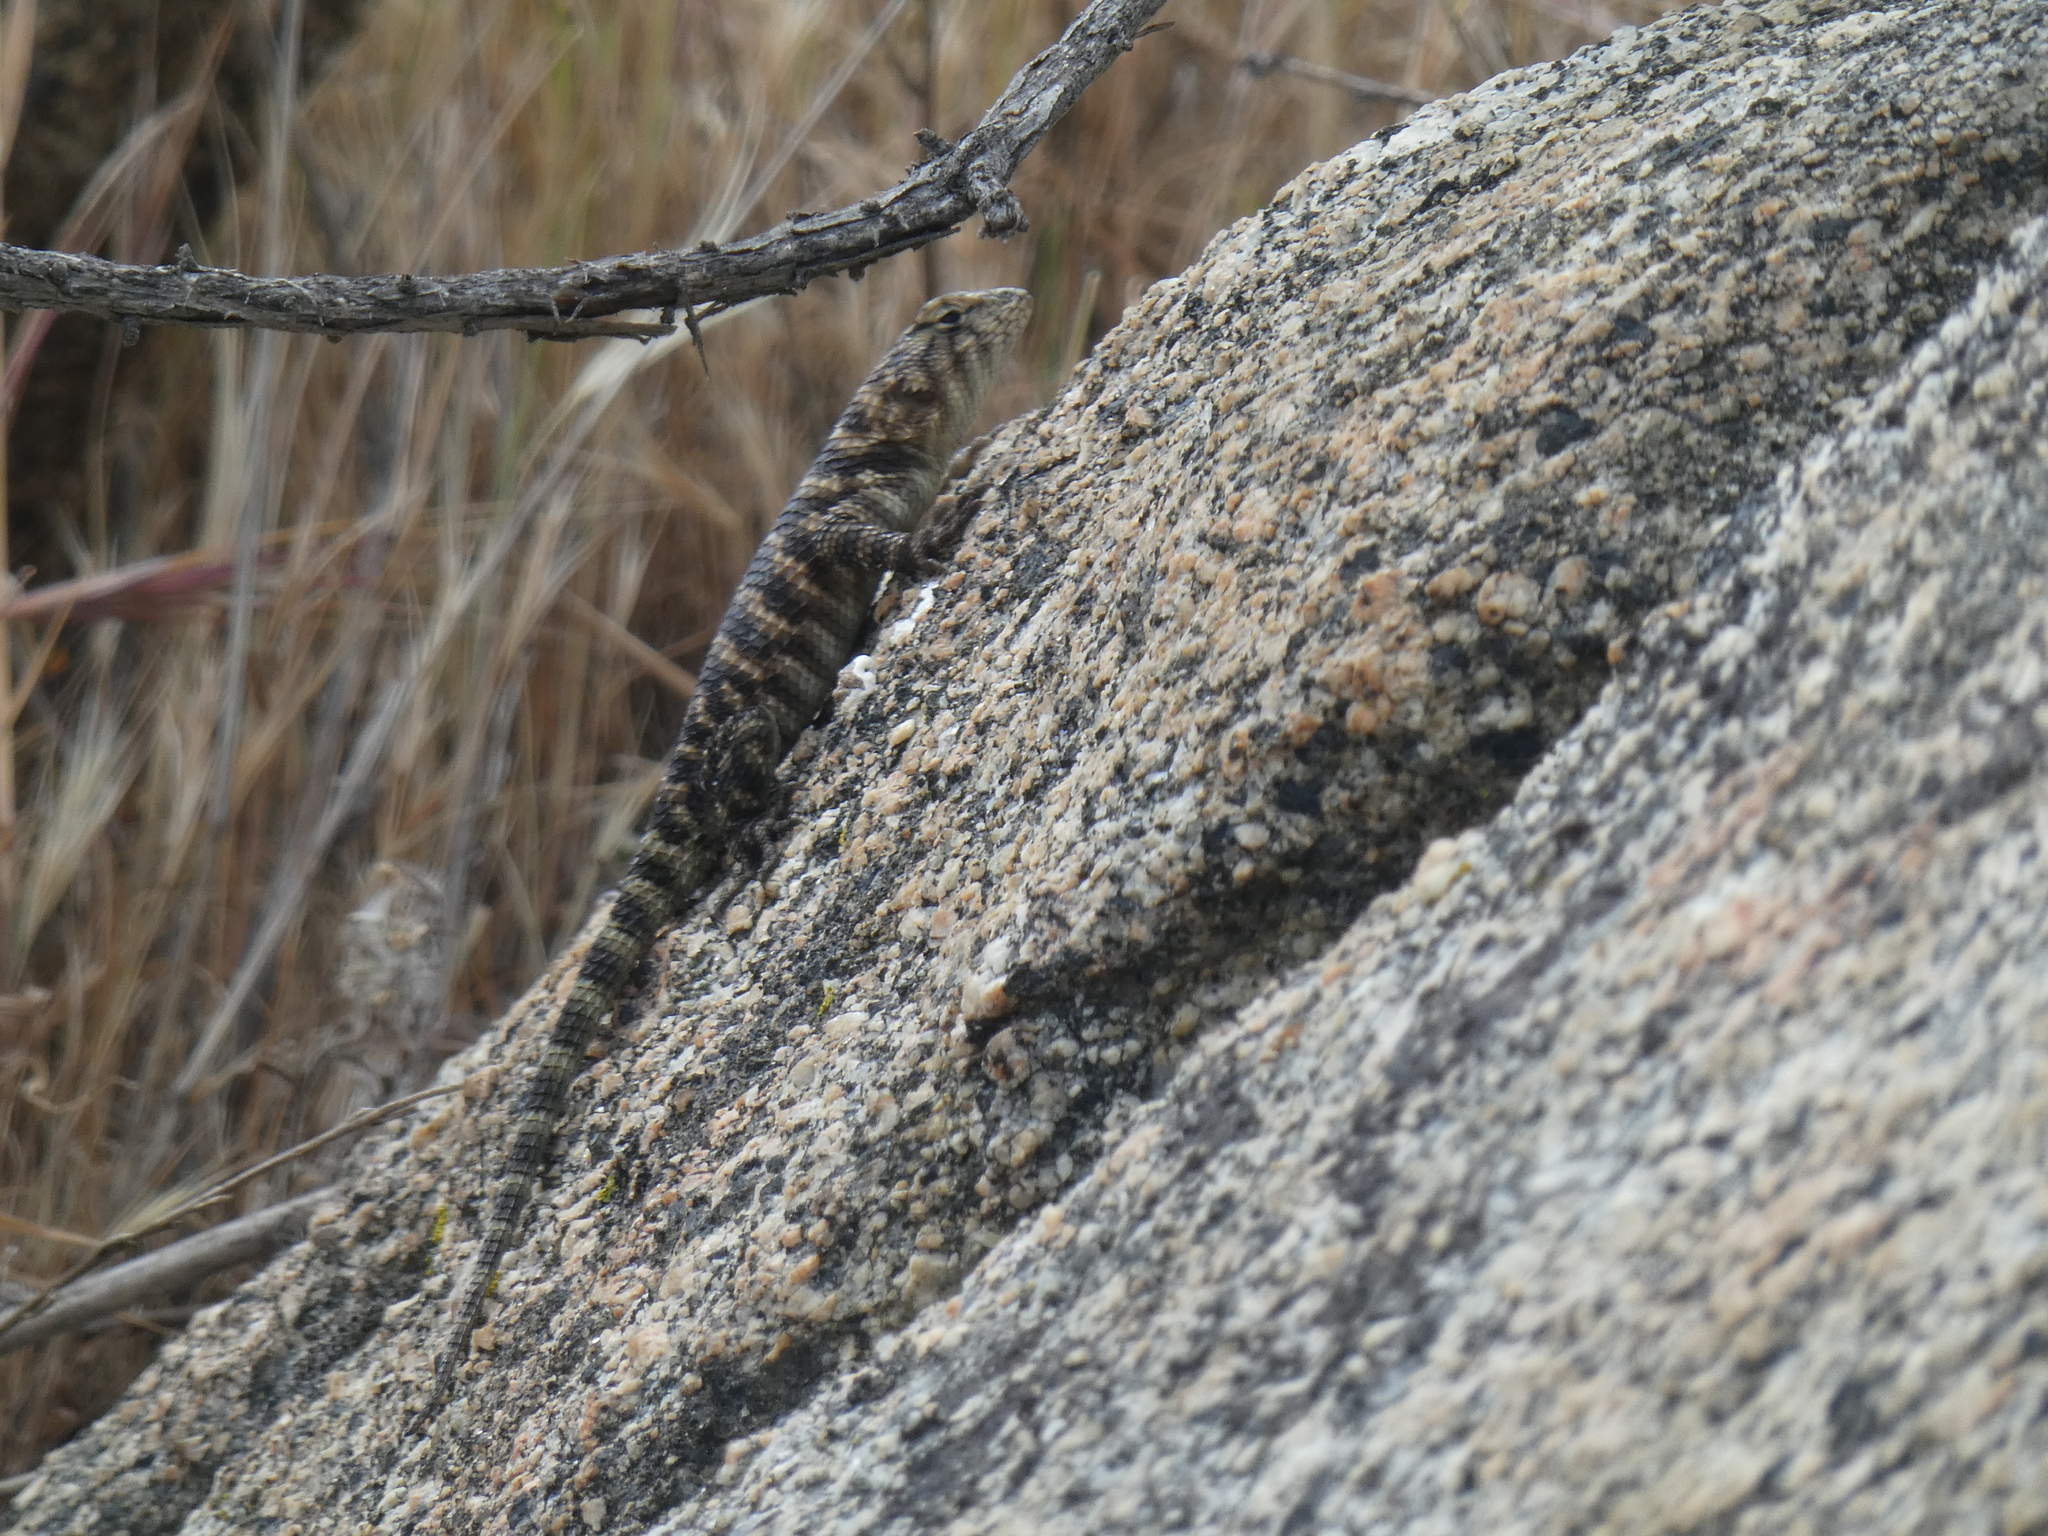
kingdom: Animalia
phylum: Chordata
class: Squamata
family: Phrynosomatidae
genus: Sceloporus
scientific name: Sceloporus orcutti
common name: Granite spiny lizard
